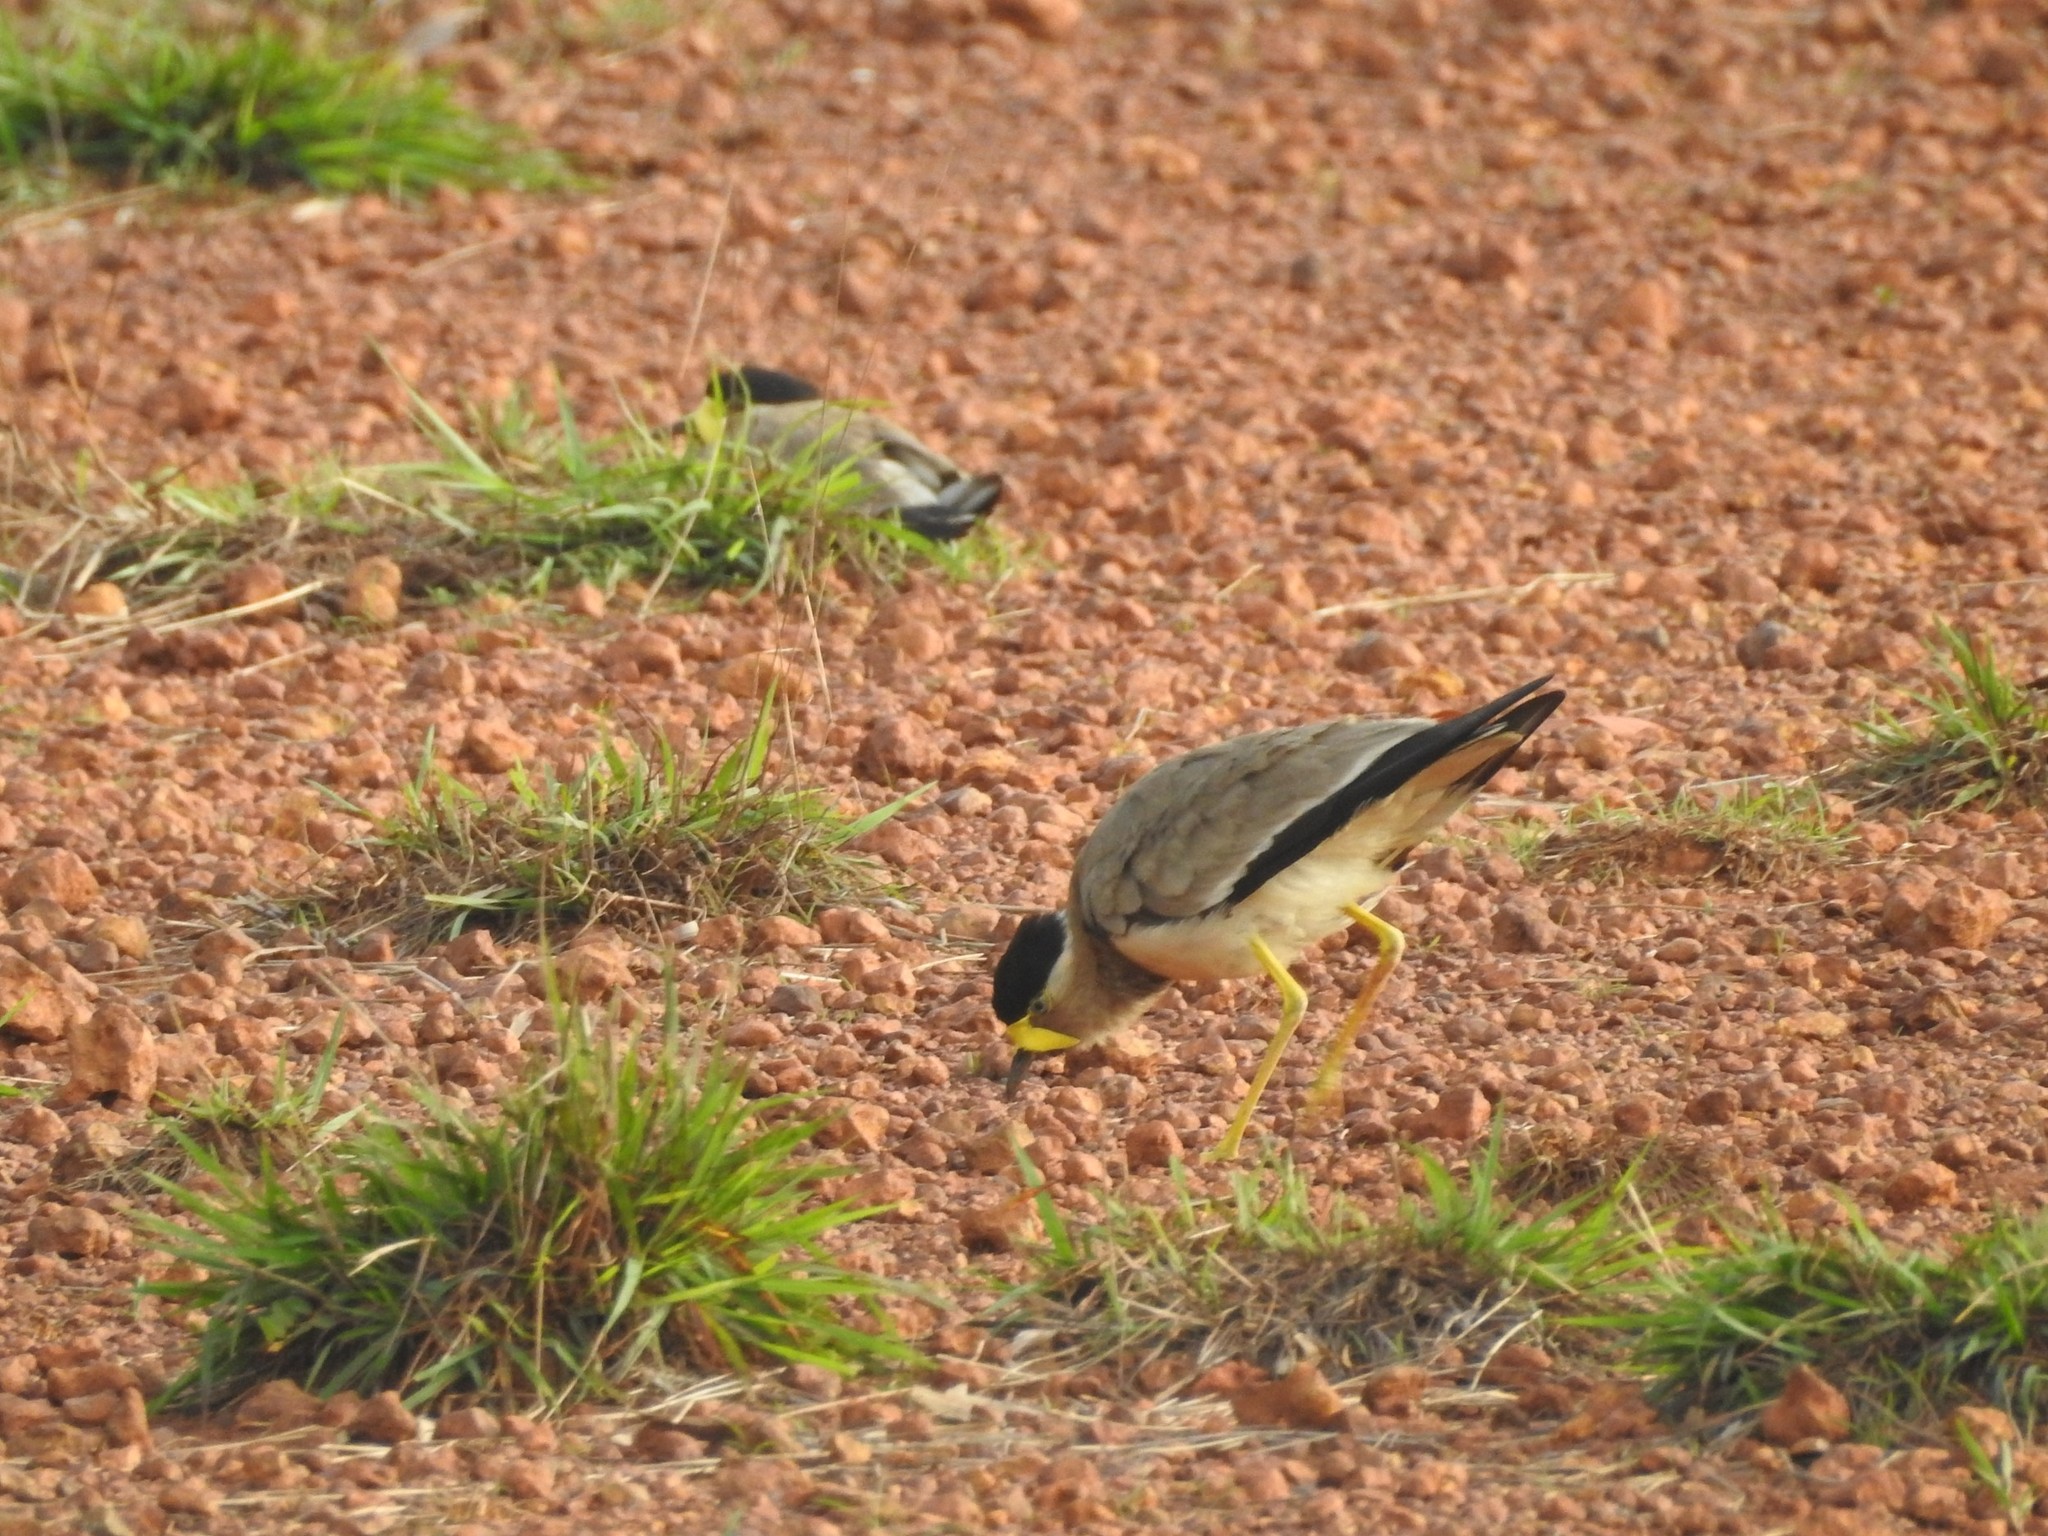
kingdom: Animalia
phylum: Chordata
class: Aves
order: Charadriiformes
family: Charadriidae
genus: Vanellus
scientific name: Vanellus malabaricus
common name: Yellow-wattled lapwing
